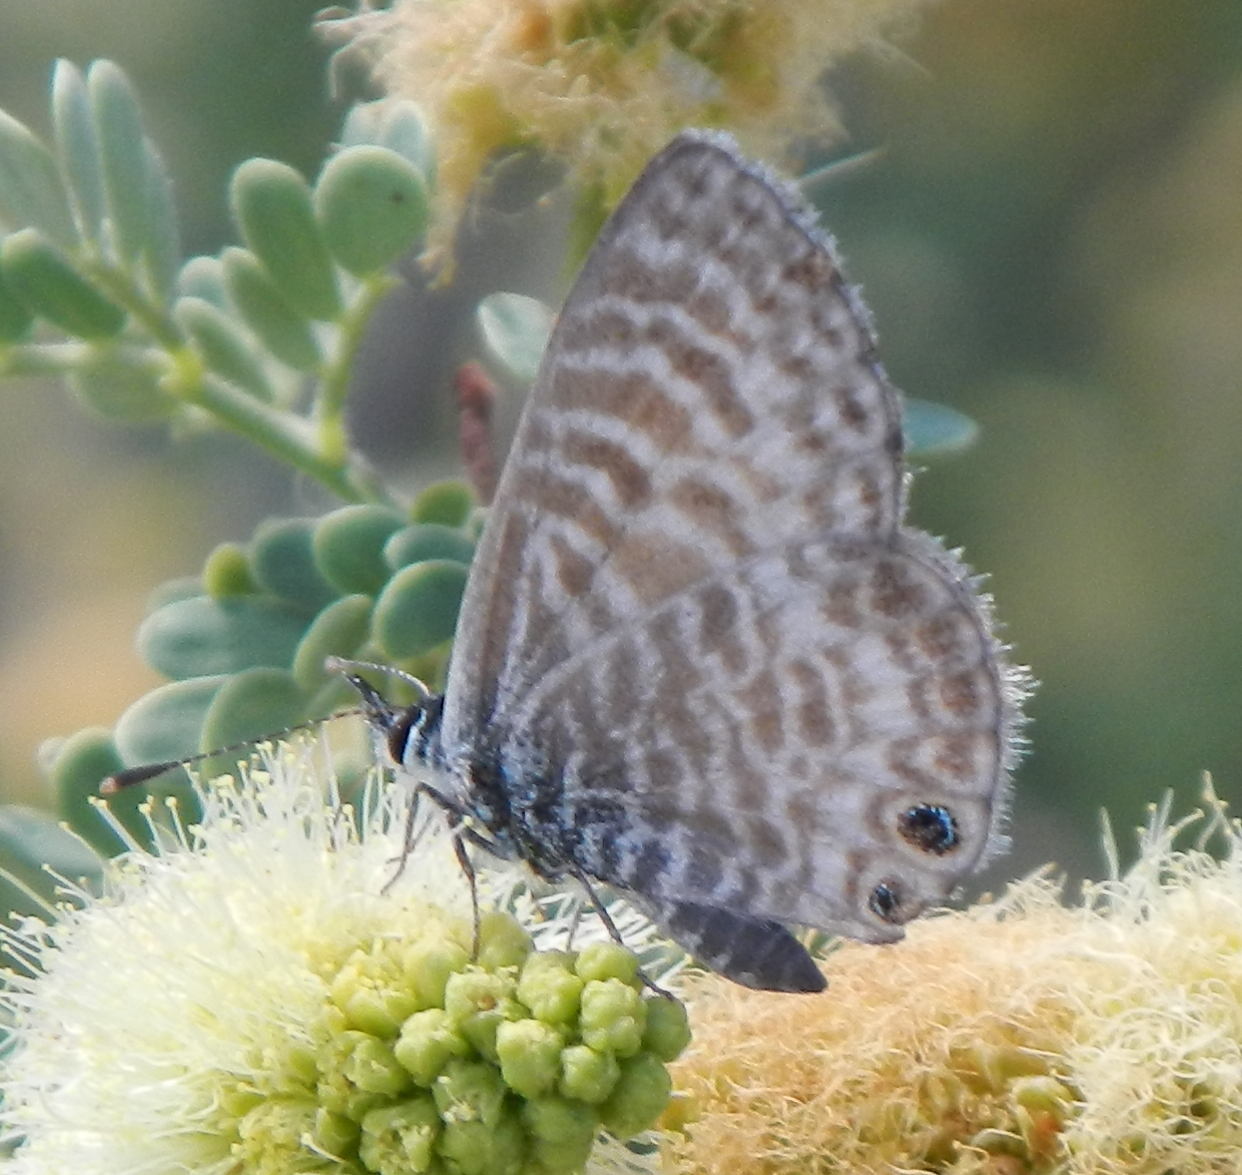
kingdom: Animalia
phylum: Arthropoda
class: Insecta
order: Lepidoptera
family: Lycaenidae
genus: Leptotes
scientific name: Leptotes marina
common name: Marine blue
